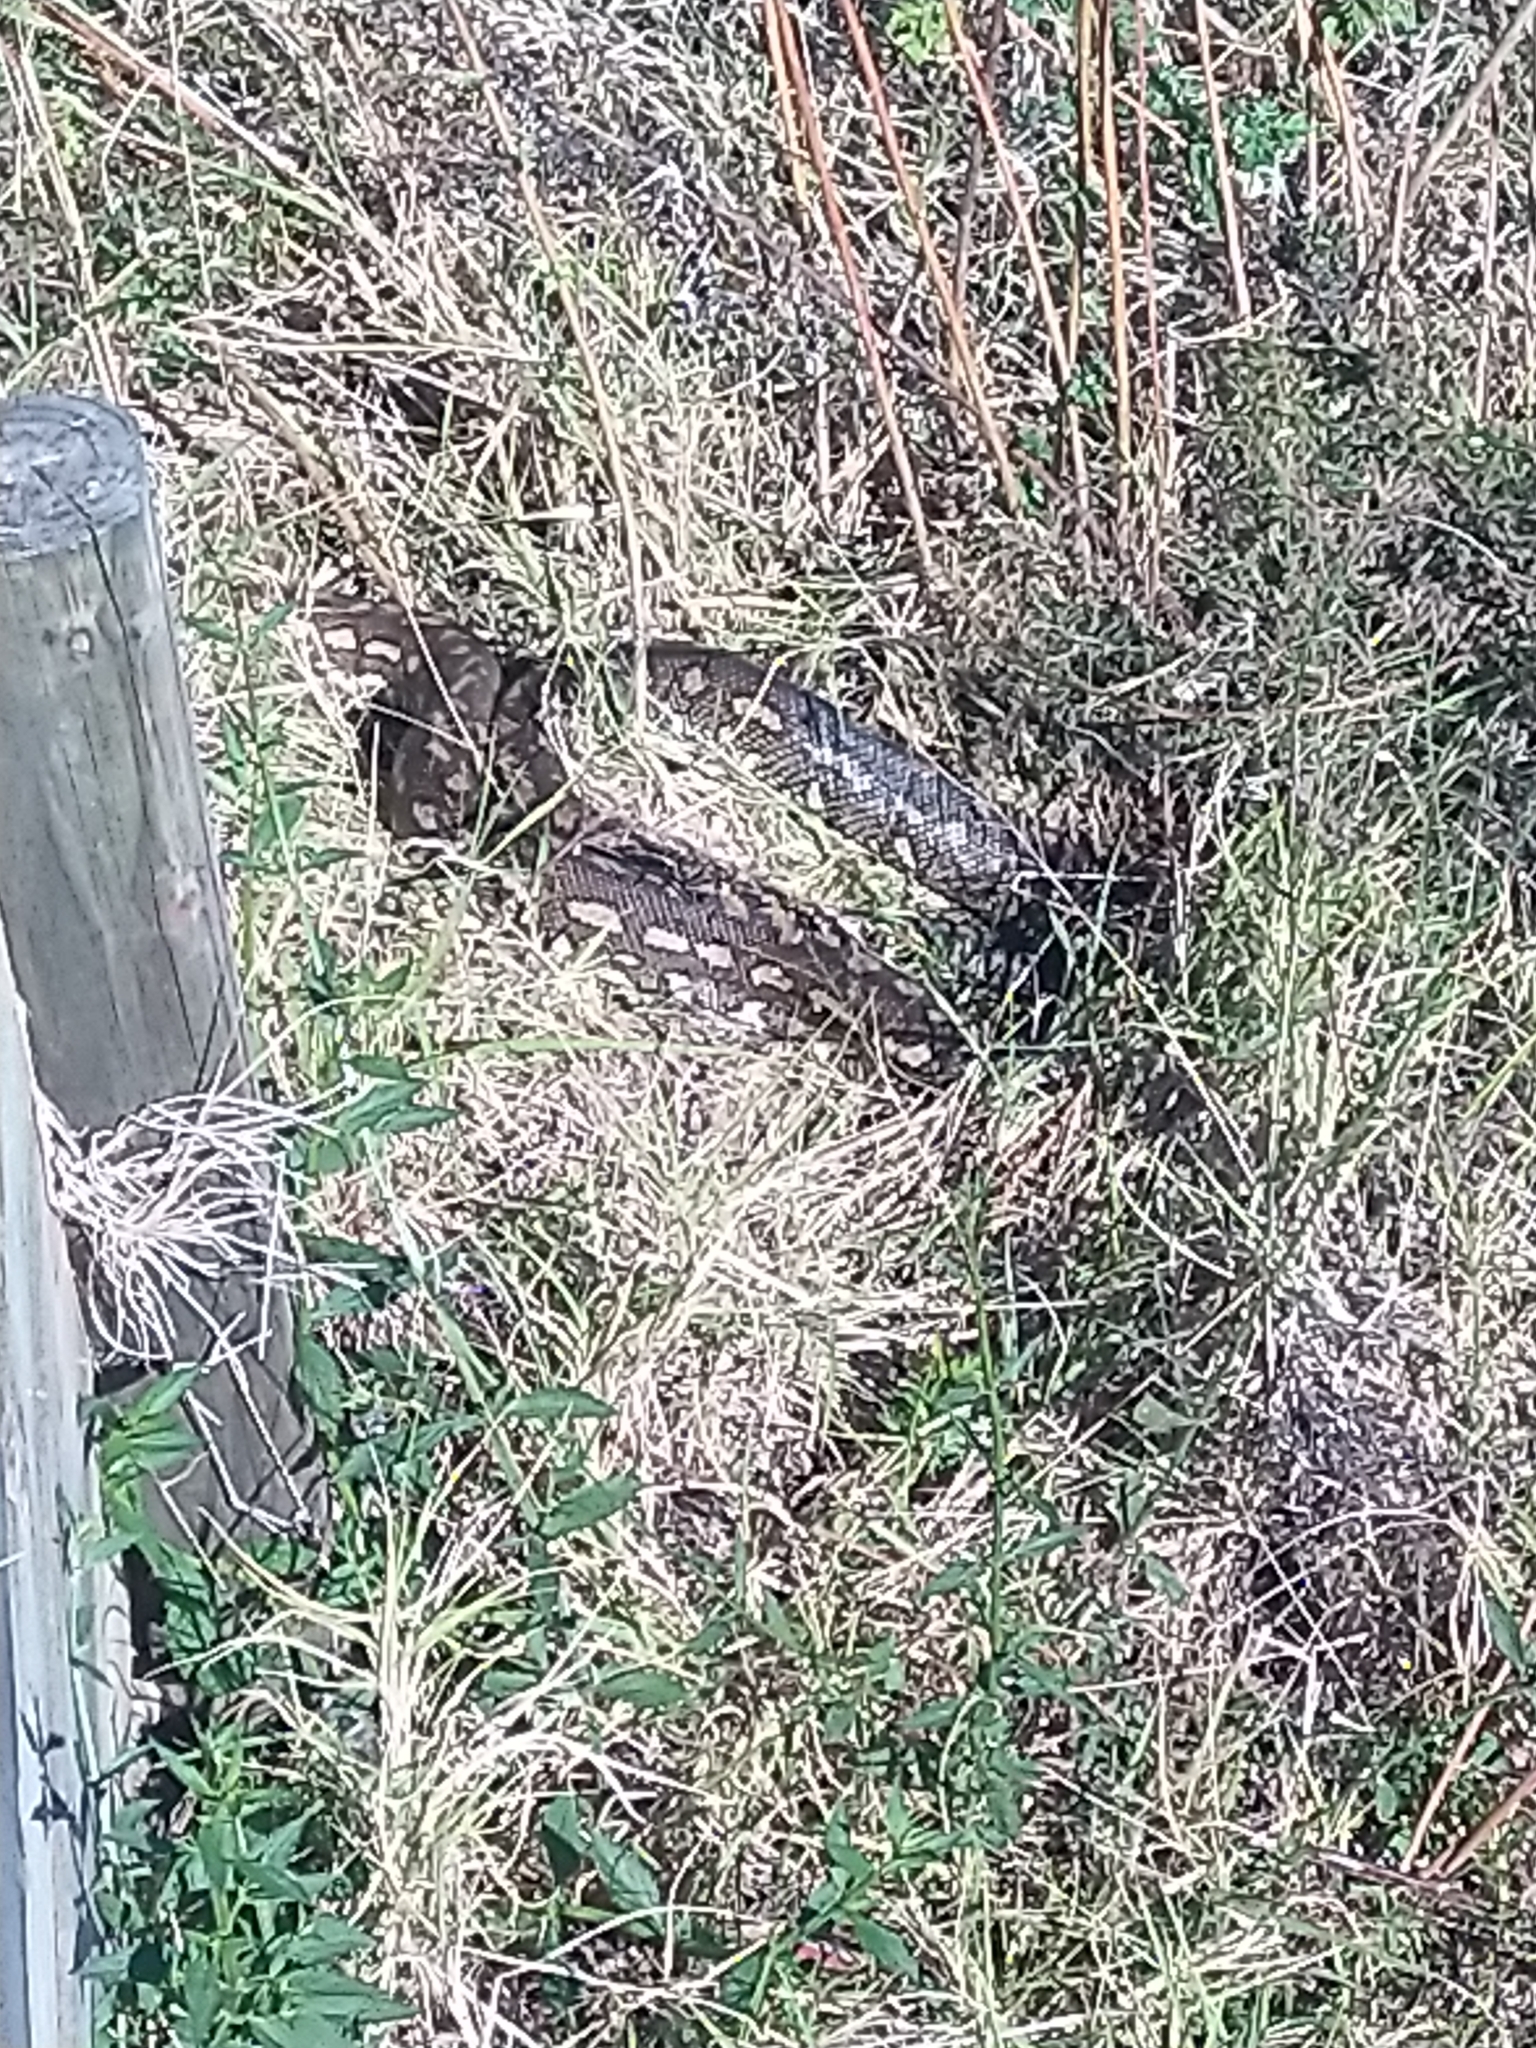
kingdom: Animalia
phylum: Chordata
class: Squamata
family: Pythonidae
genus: Morelia
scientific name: Morelia spilota
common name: Carpet python
